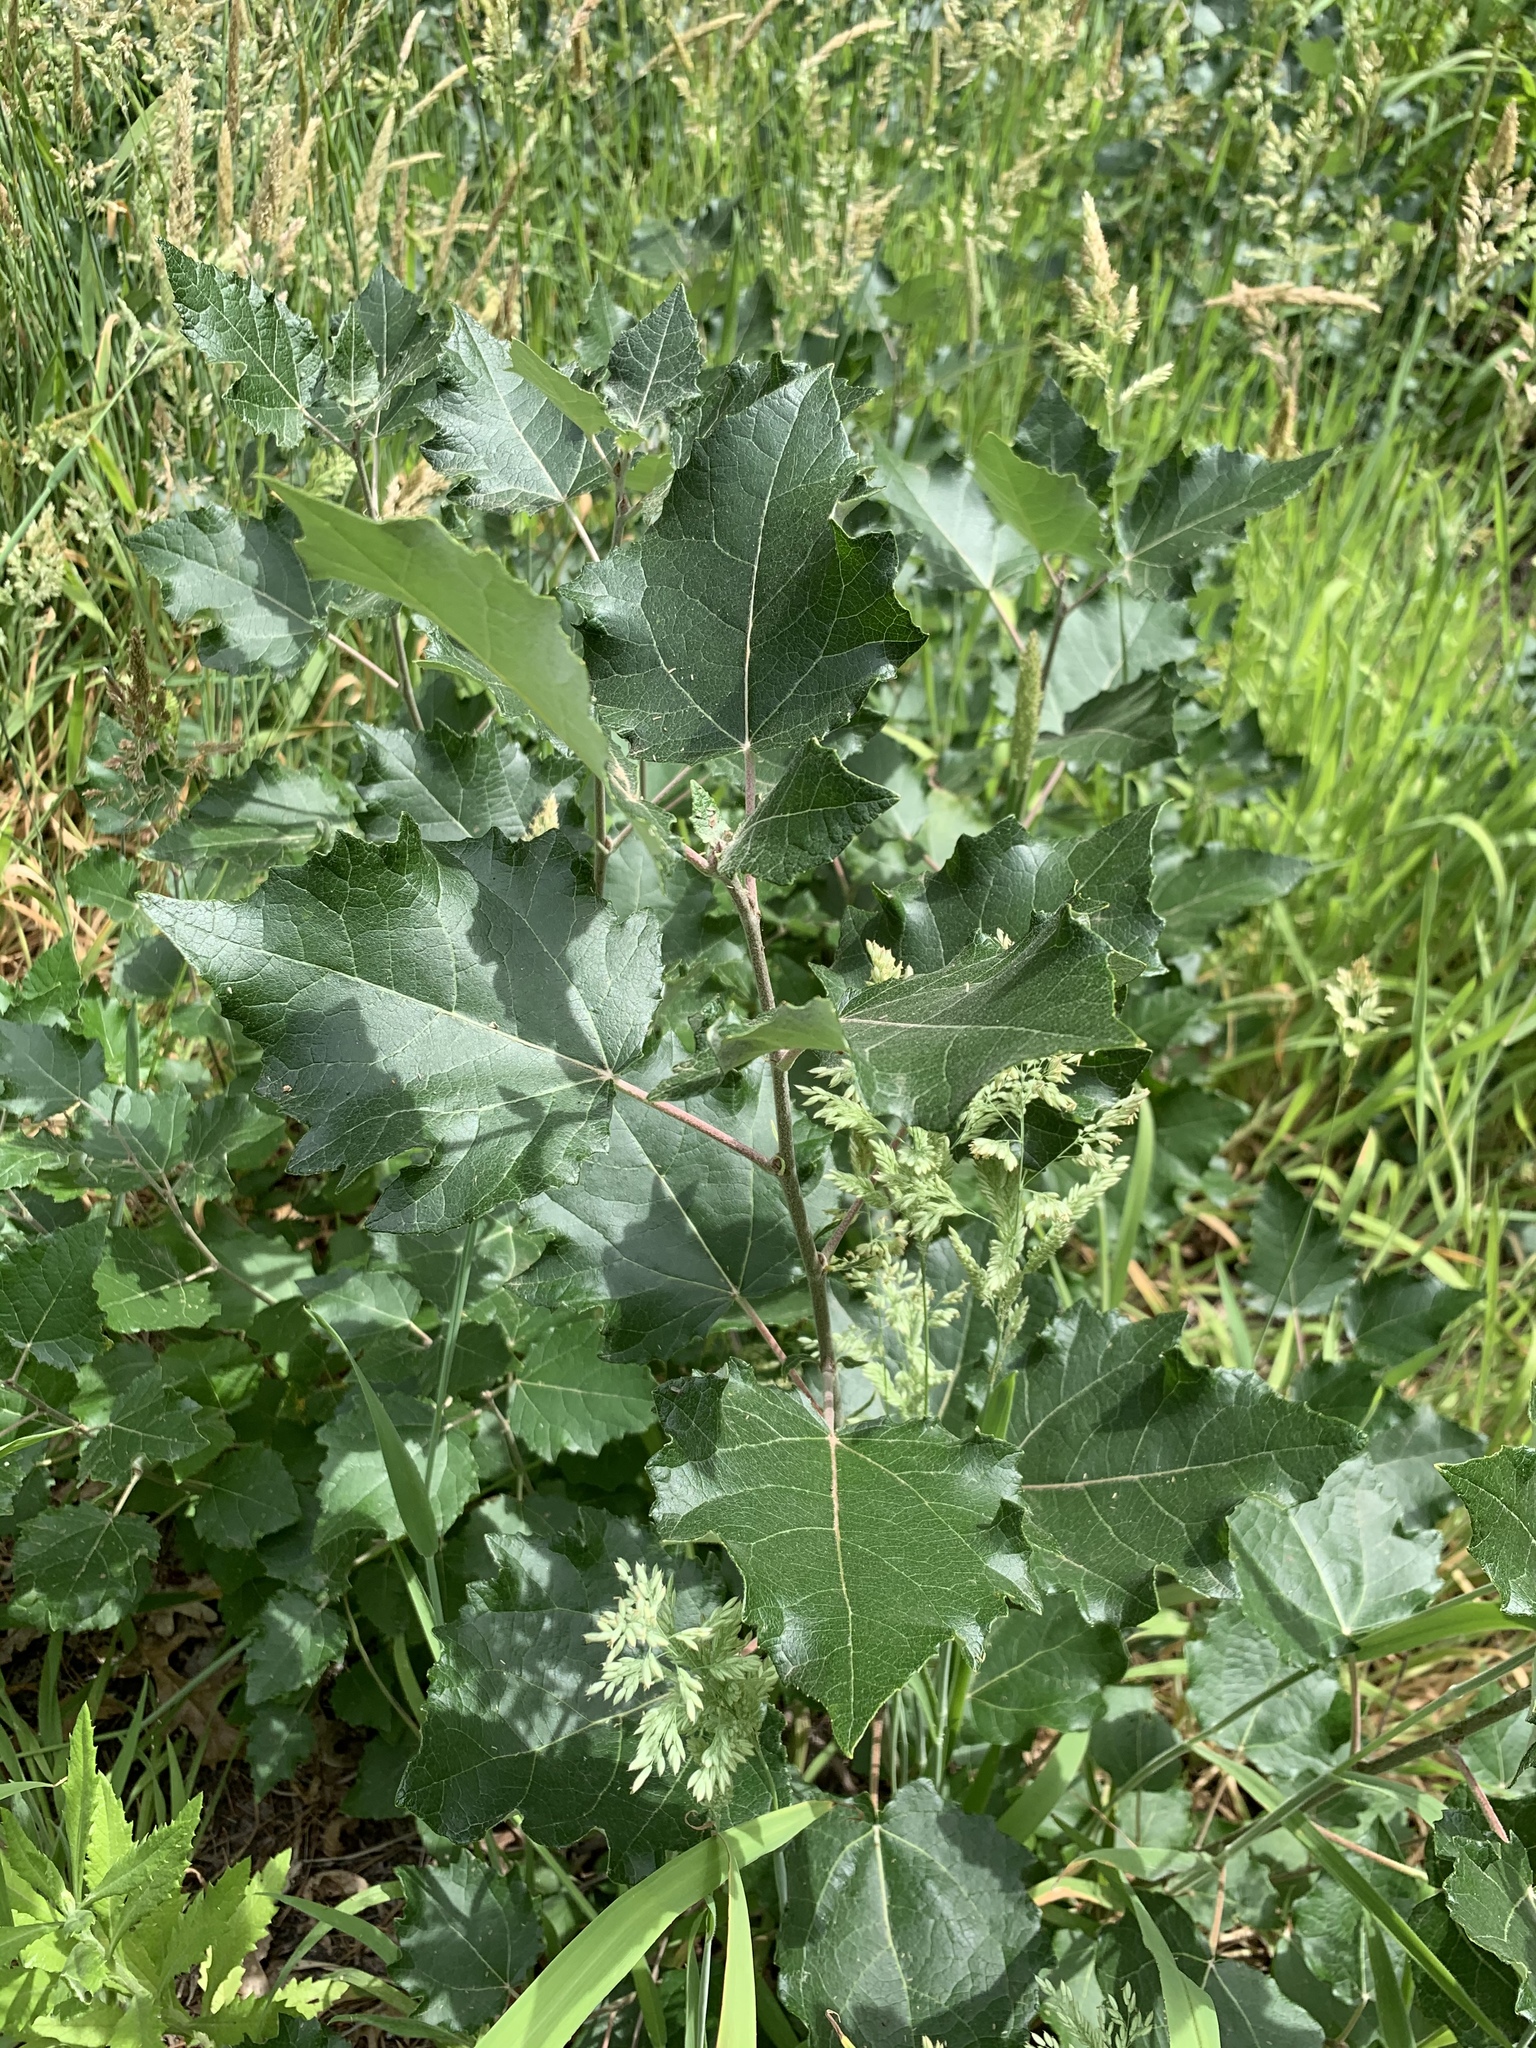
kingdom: Plantae
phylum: Tracheophyta
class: Magnoliopsida
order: Malpighiales
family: Salicaceae
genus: Populus
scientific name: Populus canescens
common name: Gray poplar
